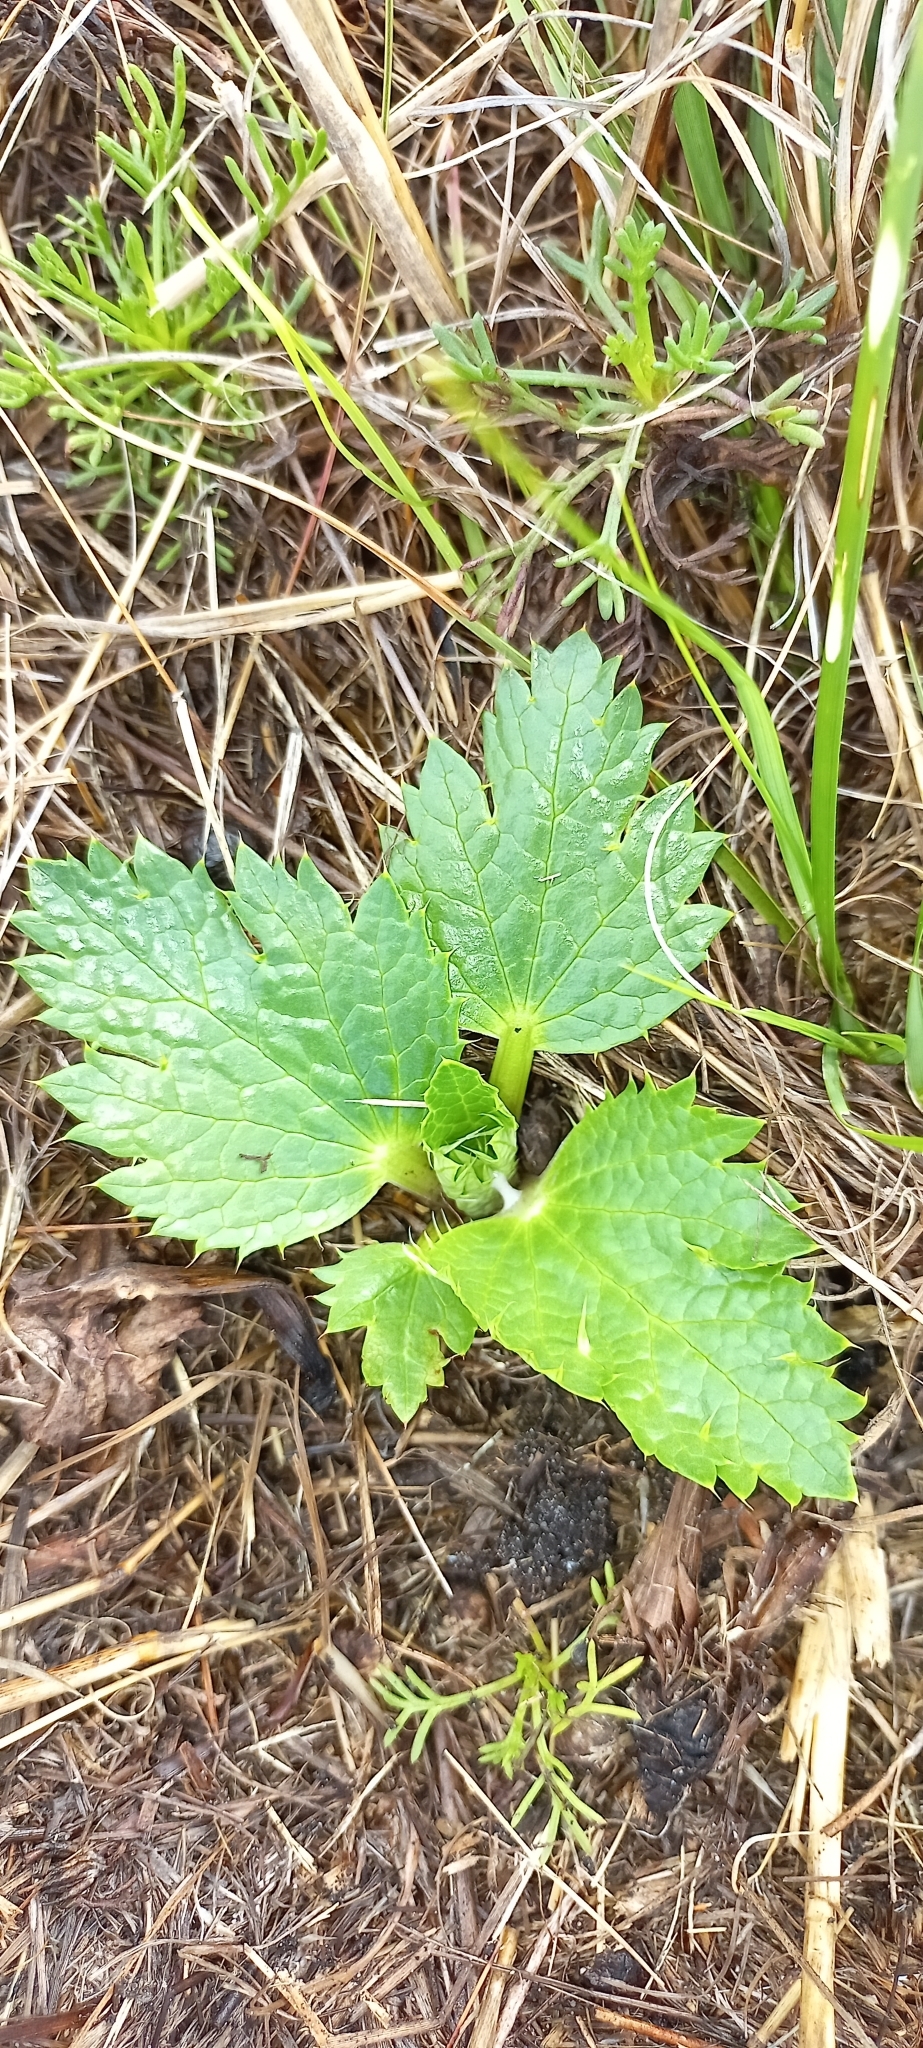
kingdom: Plantae
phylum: Tracheophyta
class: Magnoliopsida
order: Apiales
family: Apiaceae
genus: Arctopus
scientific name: Arctopus echinatus
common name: Platdoring
